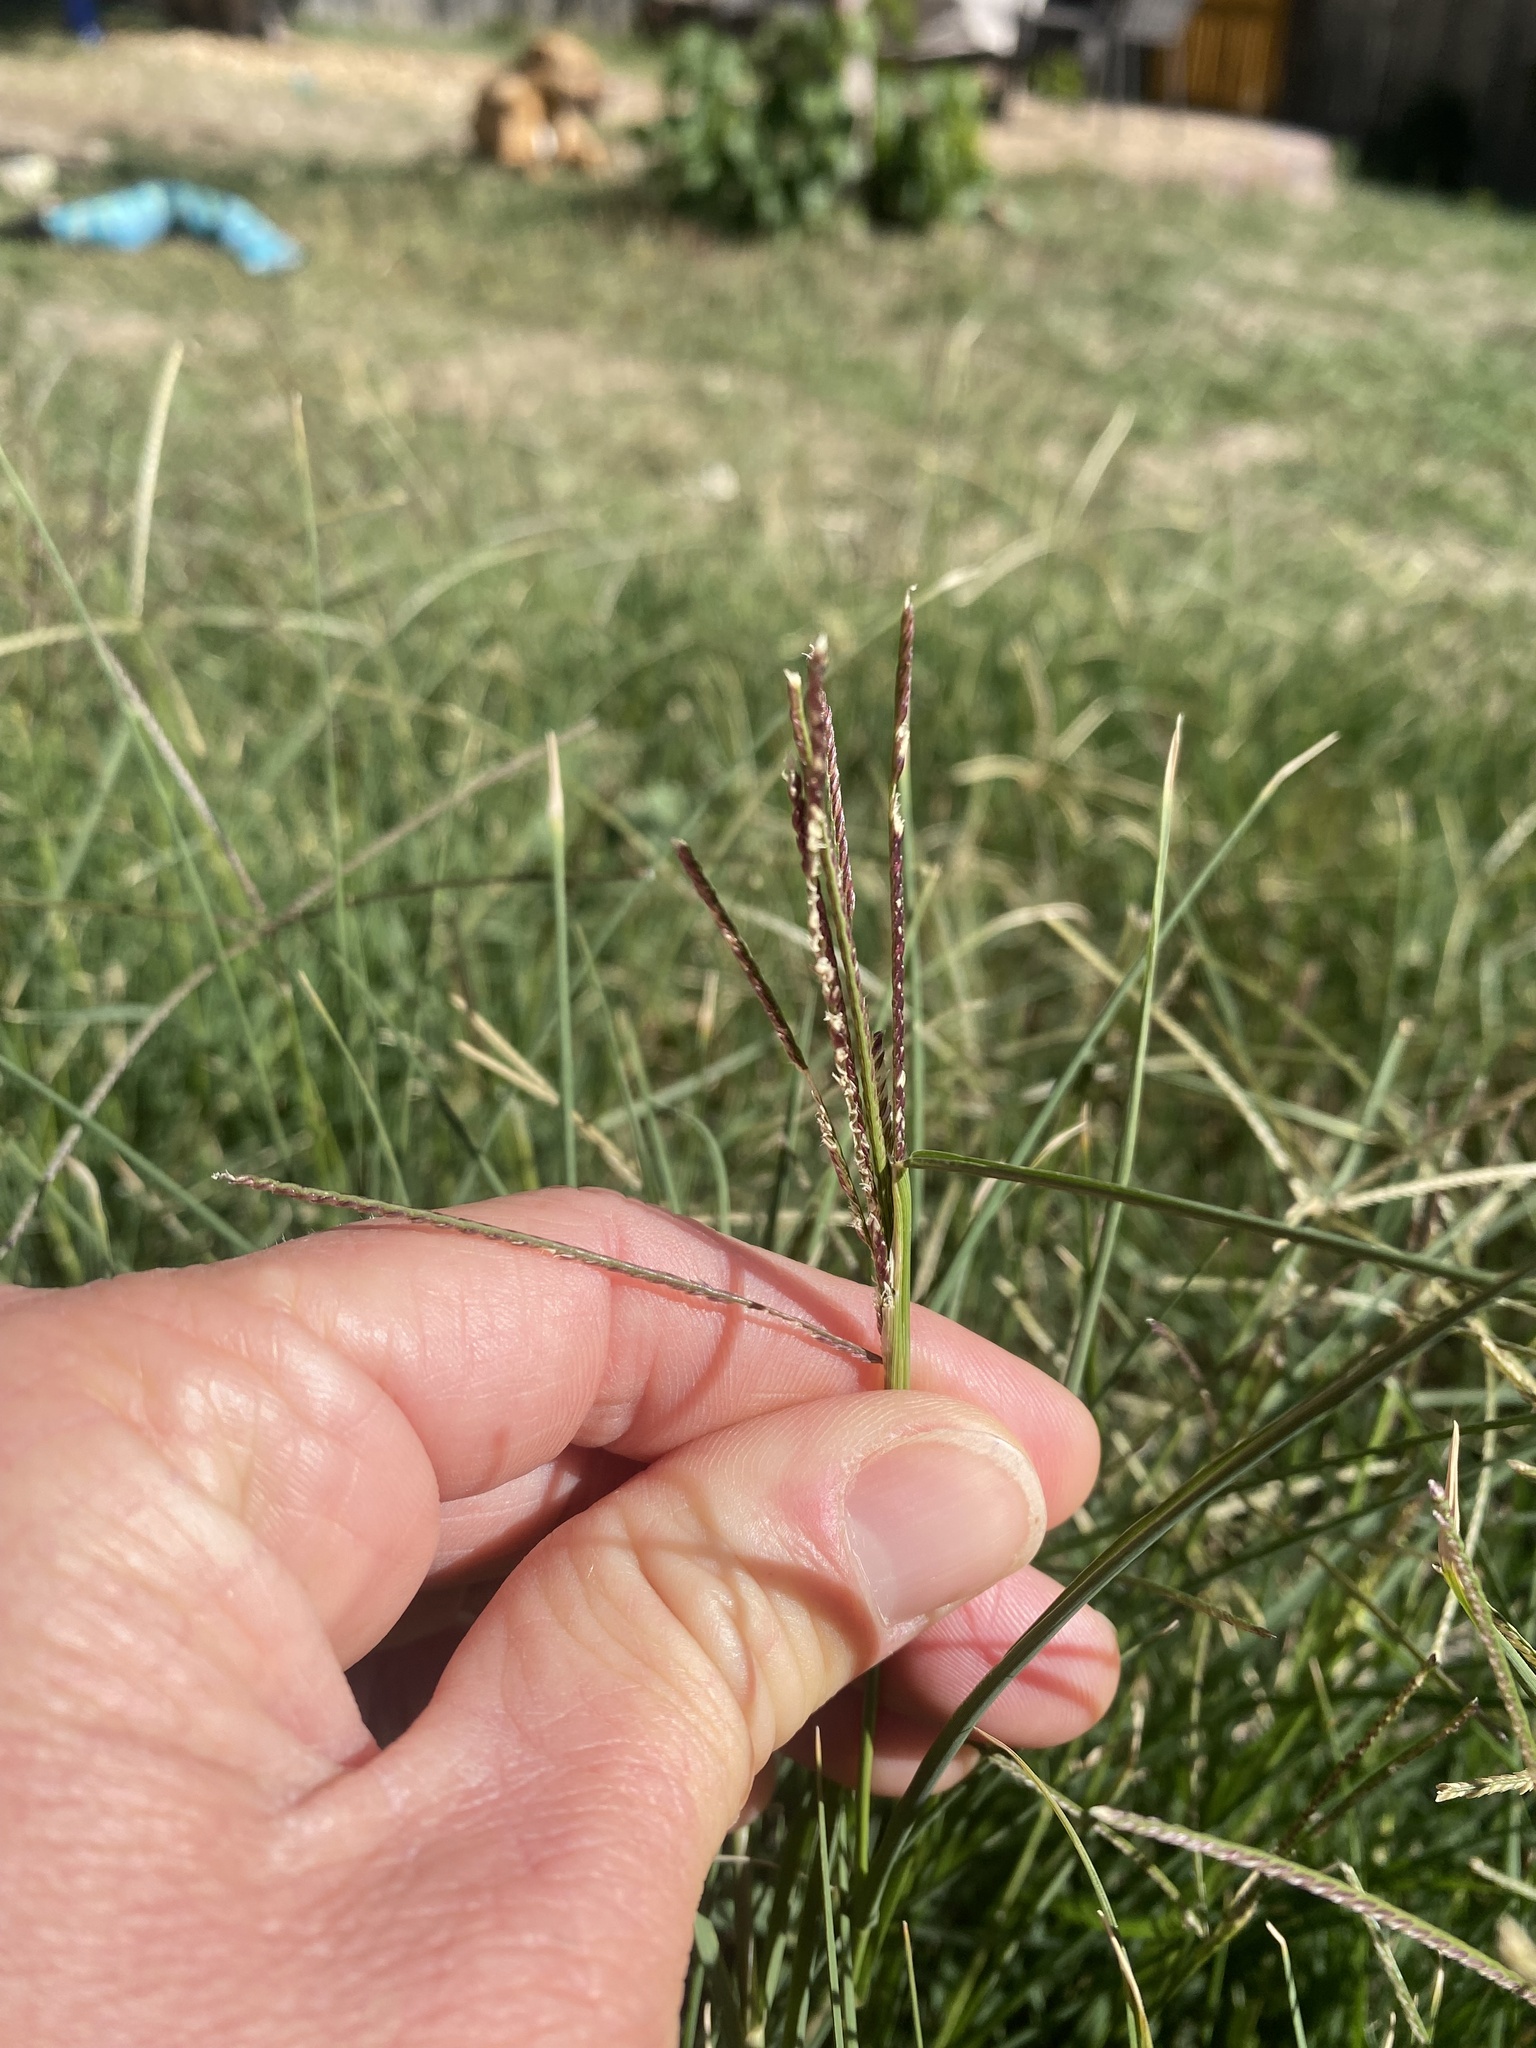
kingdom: Plantae
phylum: Tracheophyta
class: Liliopsida
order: Poales
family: Poaceae
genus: Cynodon
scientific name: Cynodon dactylon
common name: Bermuda grass
